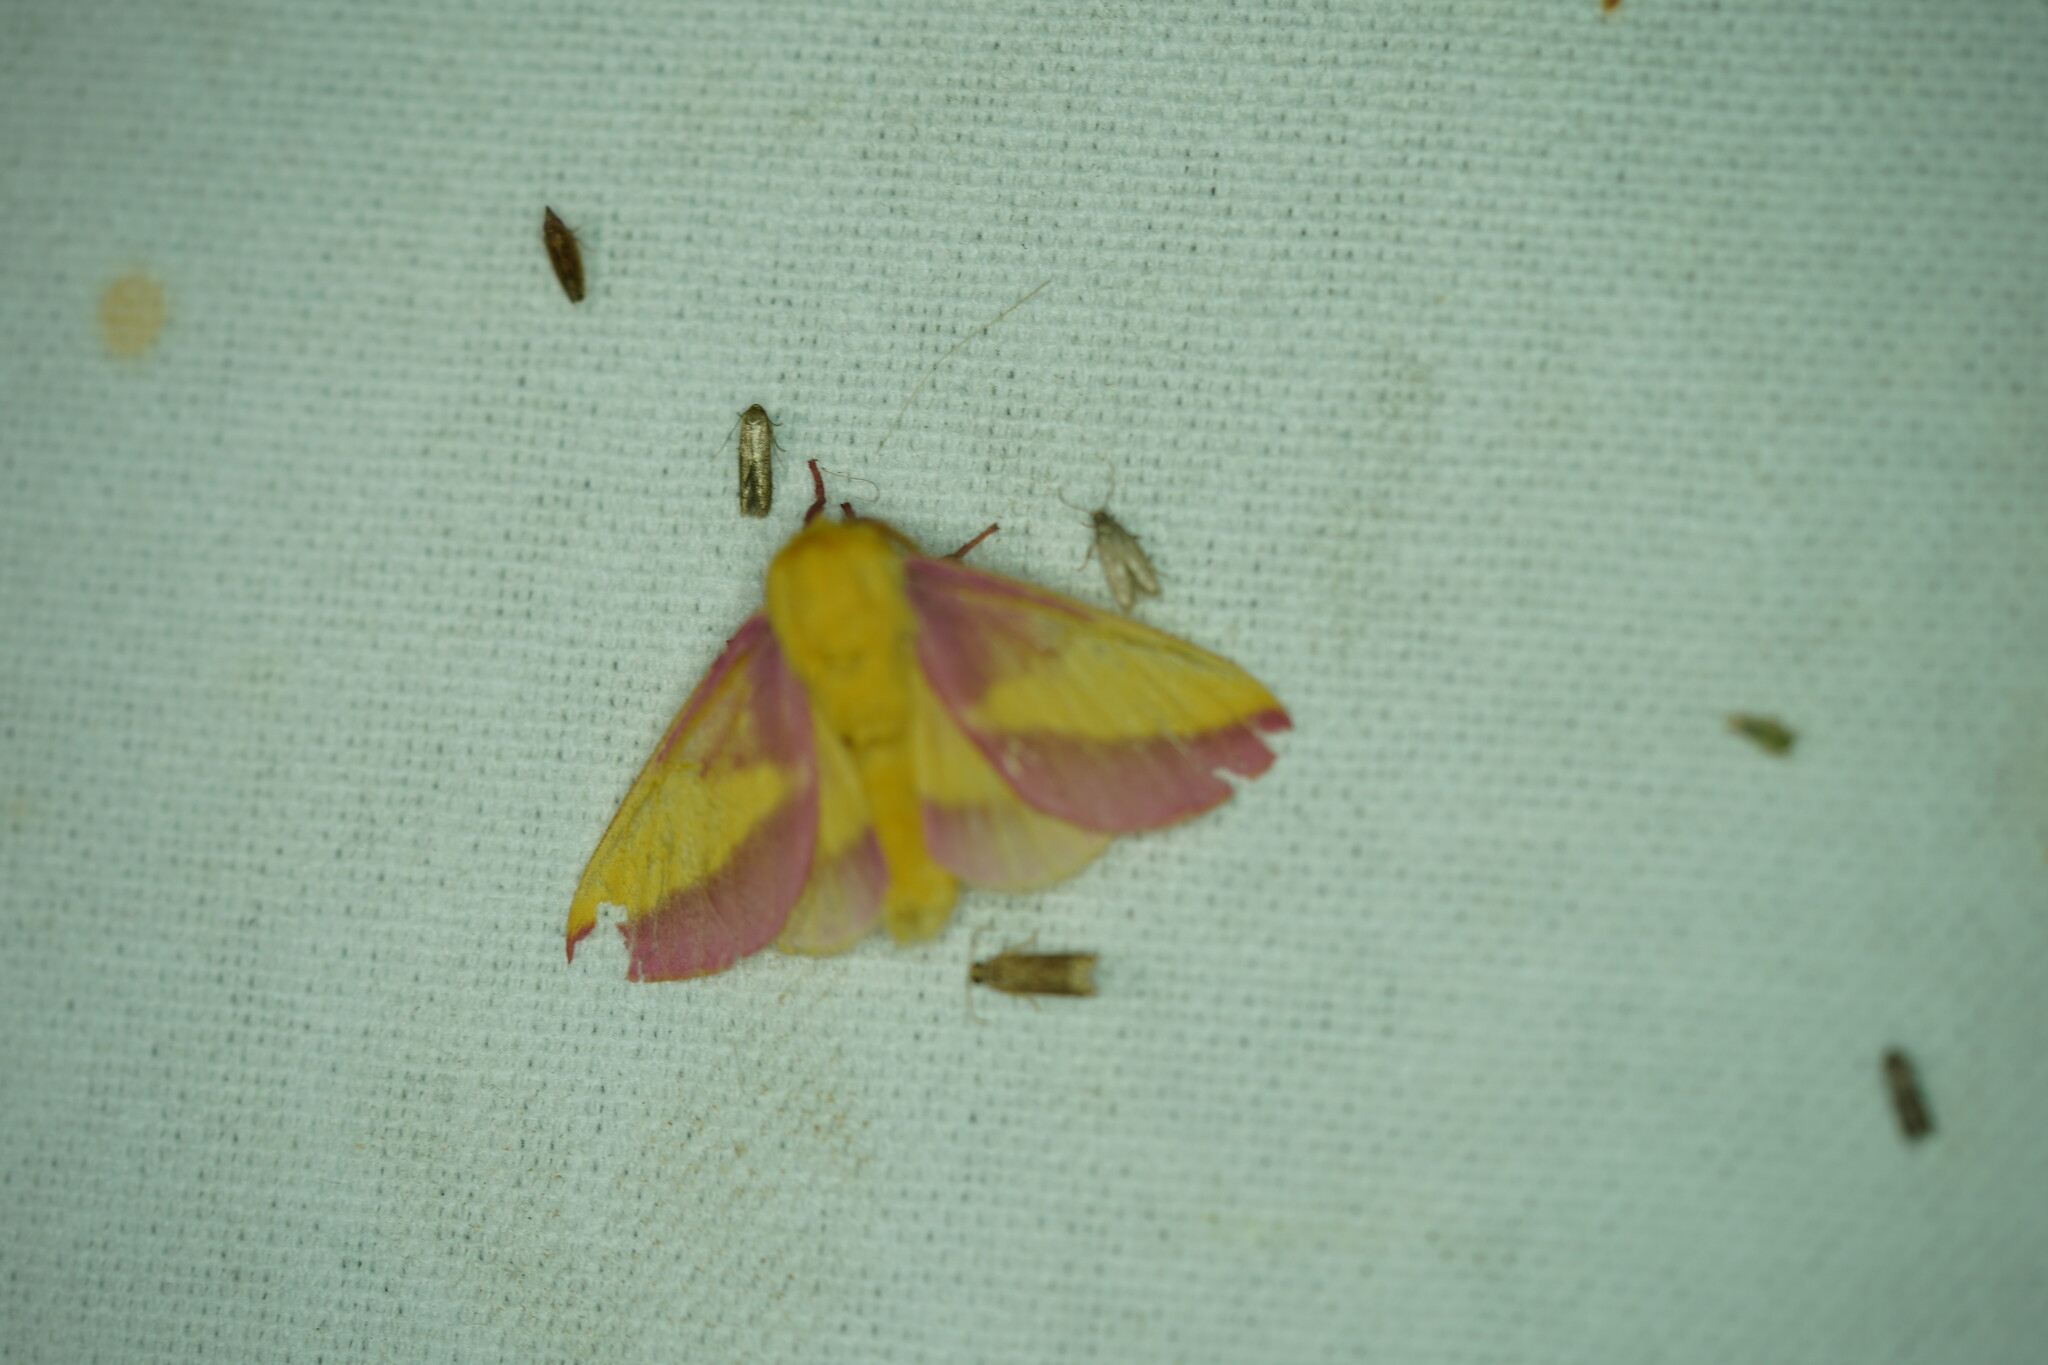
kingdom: Animalia
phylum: Arthropoda
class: Insecta
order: Lepidoptera
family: Saturniidae
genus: Dryocampa
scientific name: Dryocampa rubicunda
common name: Rosy maple moth
